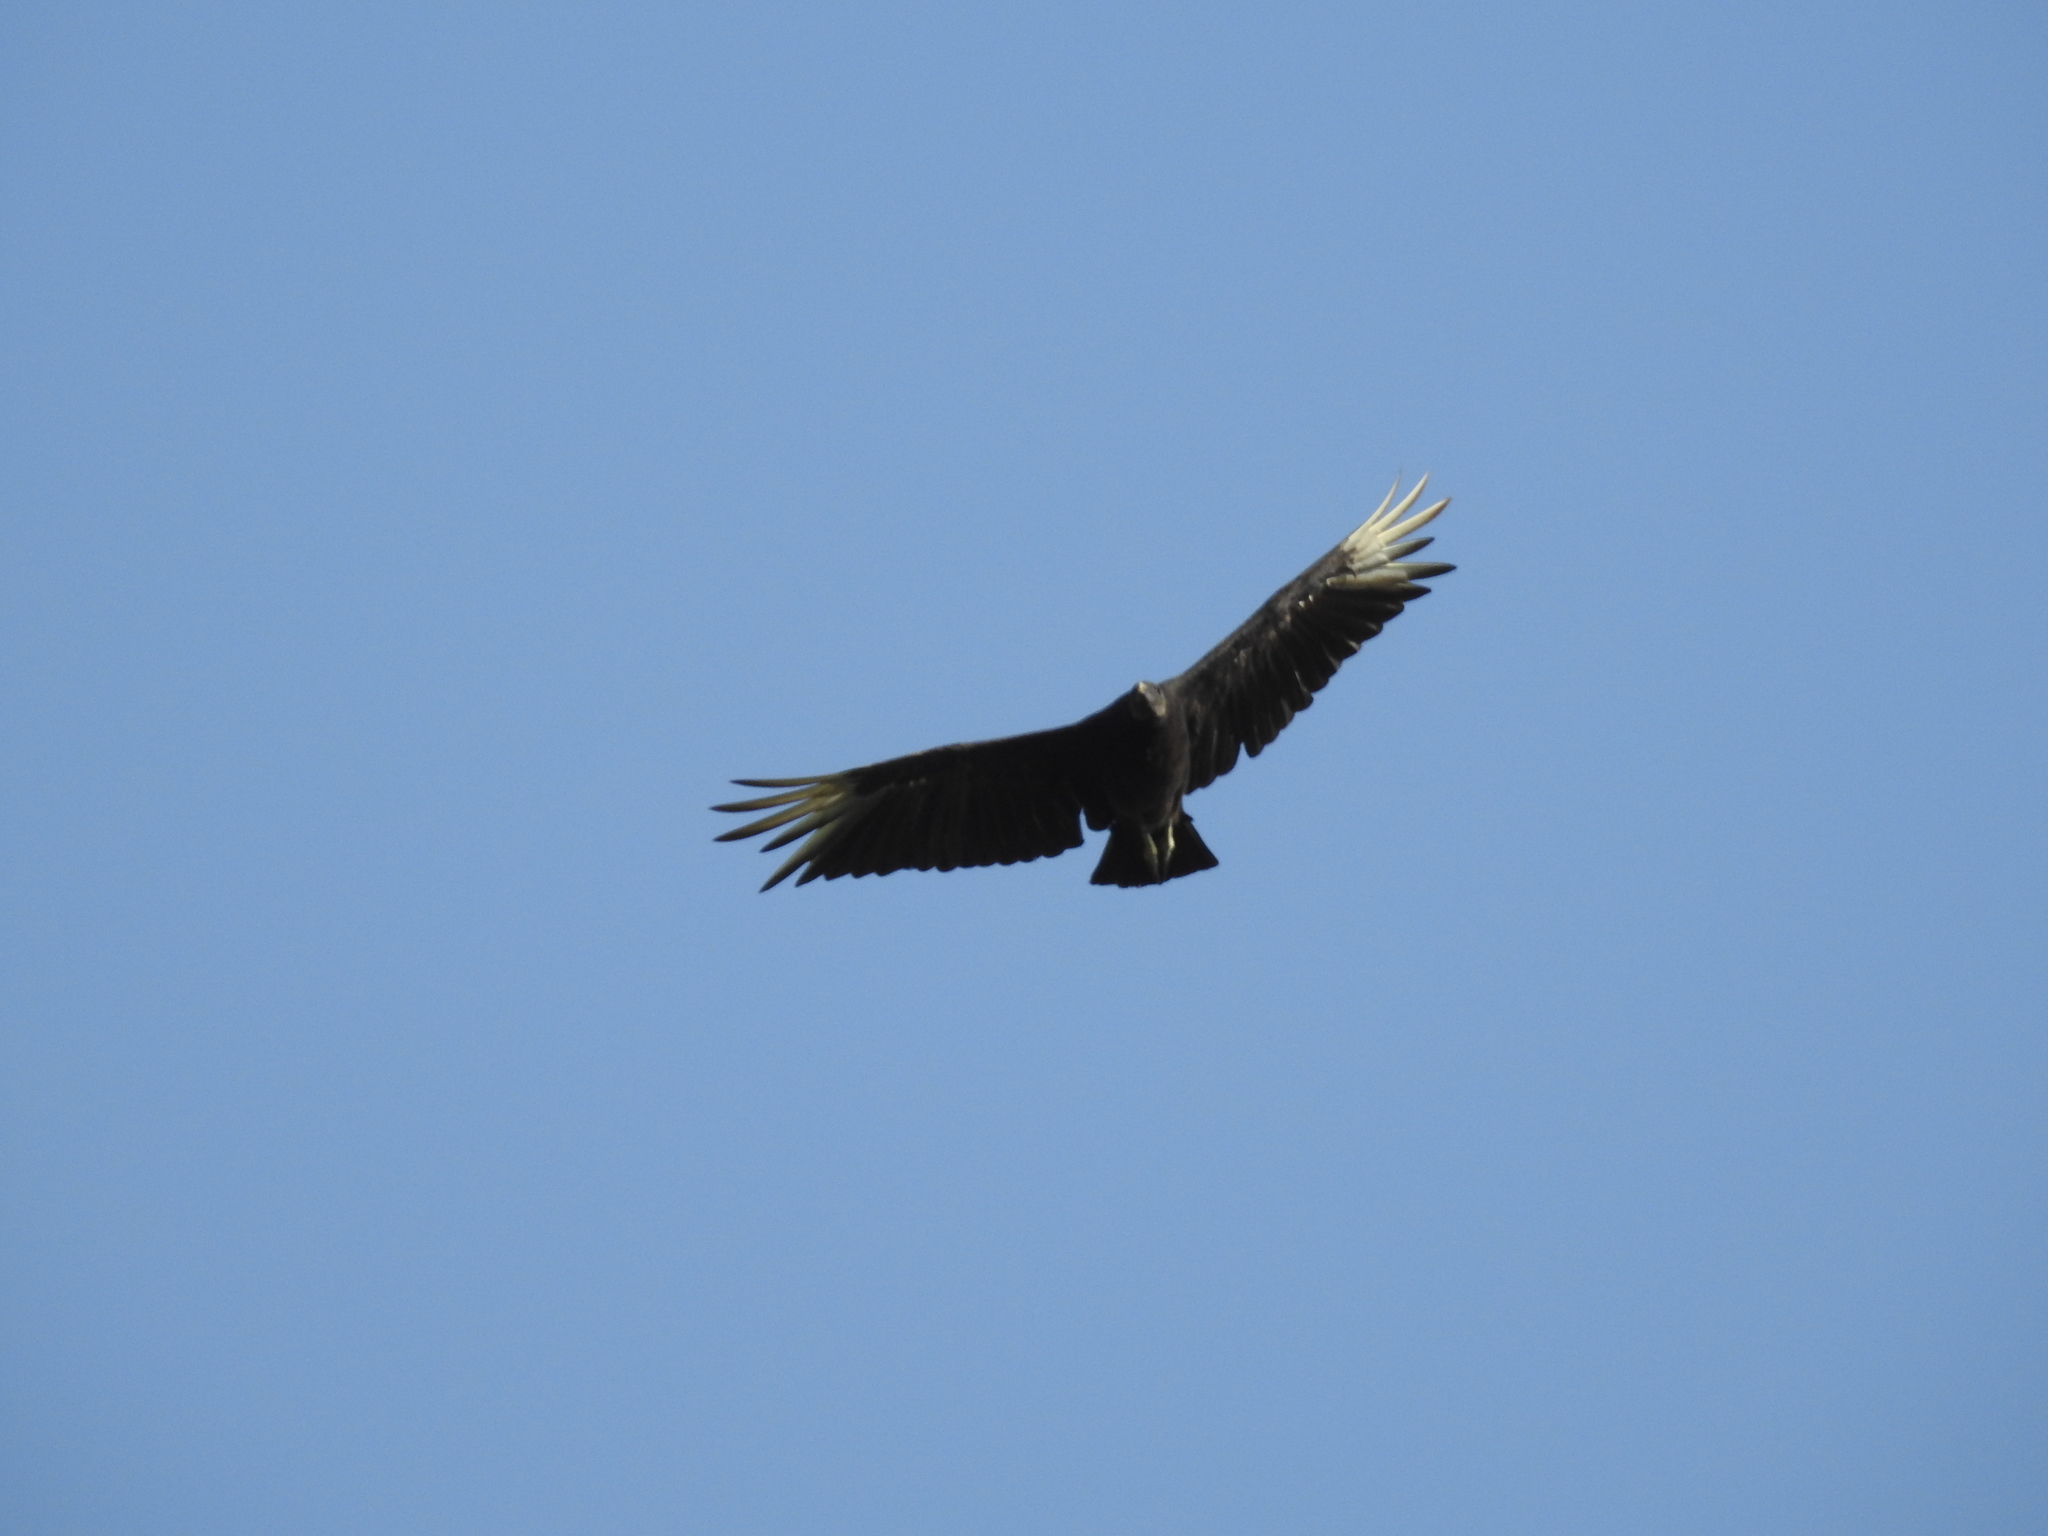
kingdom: Animalia
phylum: Chordata
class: Aves
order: Accipitriformes
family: Cathartidae
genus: Coragyps
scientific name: Coragyps atratus
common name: Black vulture
